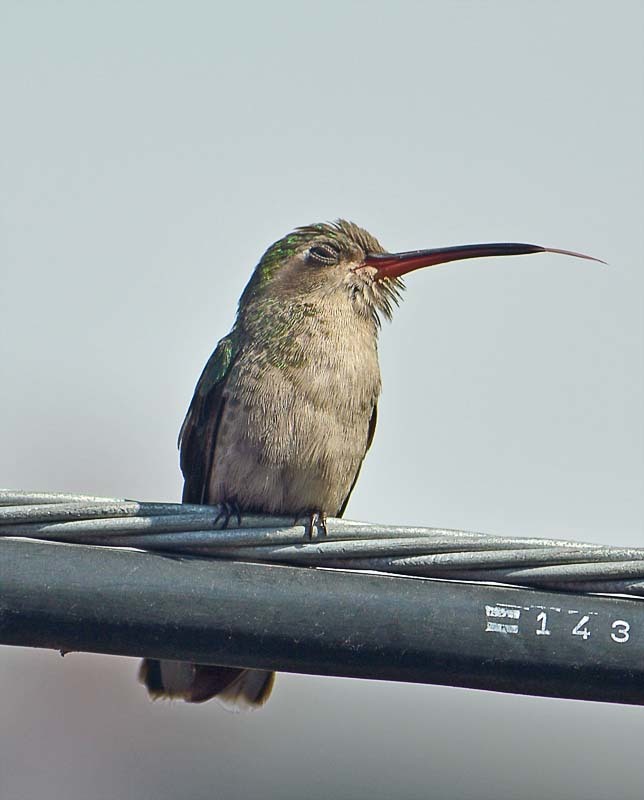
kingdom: Animalia
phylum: Chordata
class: Aves
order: Apodiformes
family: Trochilidae
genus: Cynanthus
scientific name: Cynanthus latirostris
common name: Broad-billed hummingbird
